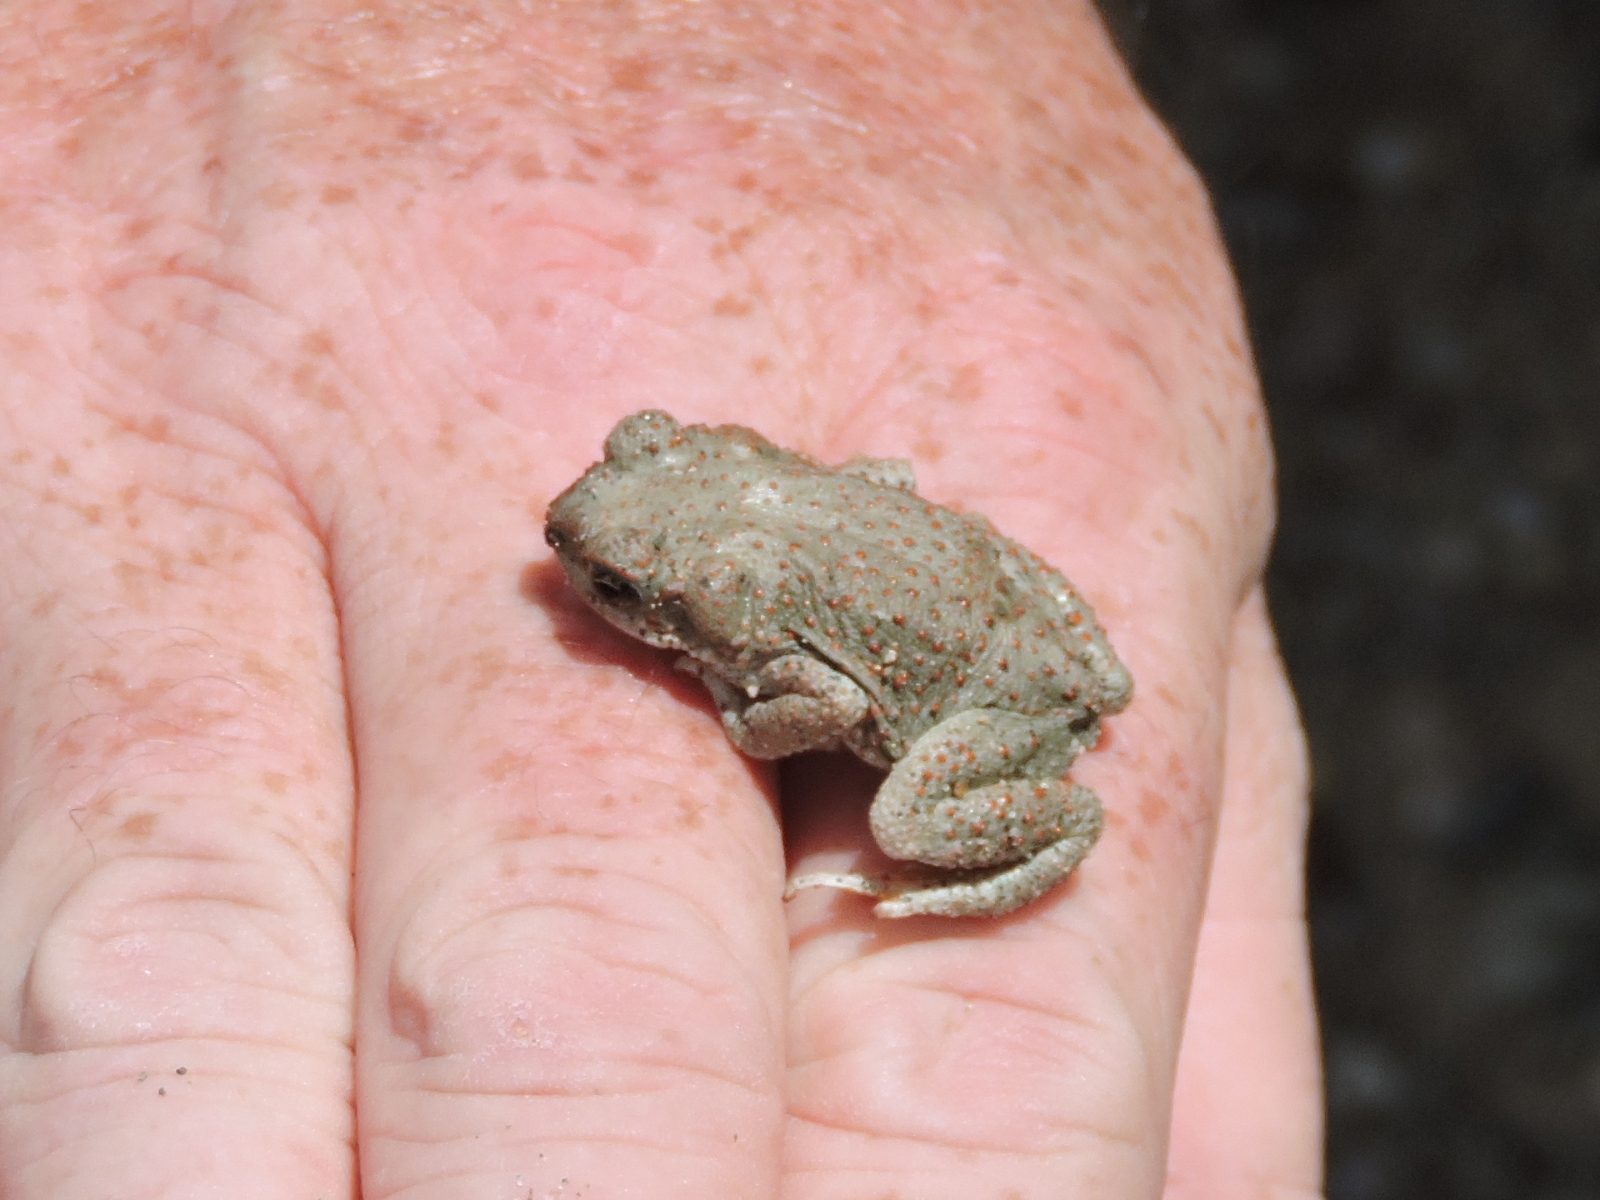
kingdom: Animalia
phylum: Chordata
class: Amphibia
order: Anura
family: Bufonidae
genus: Anaxyrus
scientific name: Anaxyrus punctatus
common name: Red-spotted toad
